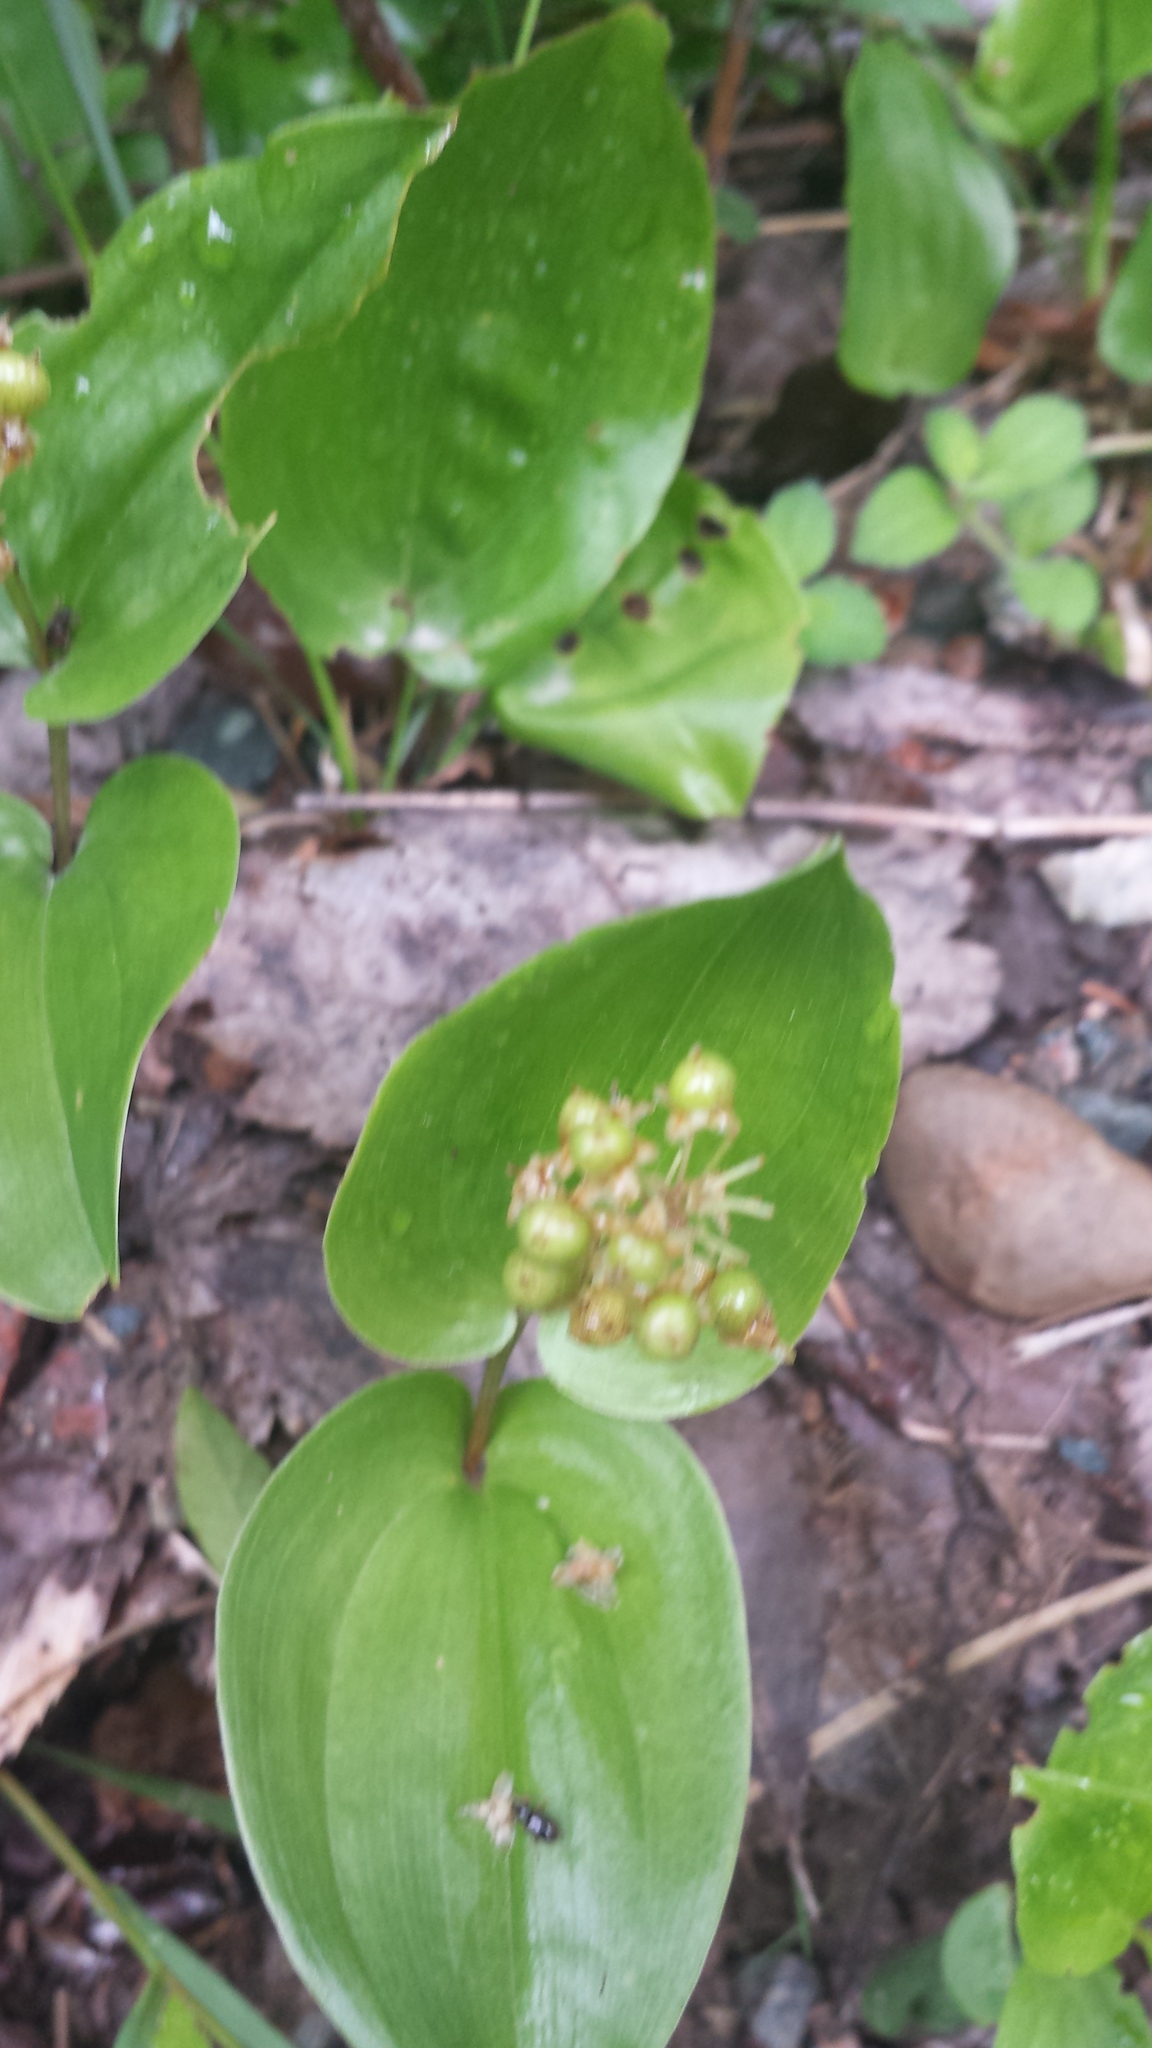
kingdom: Plantae
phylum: Tracheophyta
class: Liliopsida
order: Asparagales
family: Asparagaceae
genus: Maianthemum
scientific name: Maianthemum canadense
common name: False lily-of-the-valley
